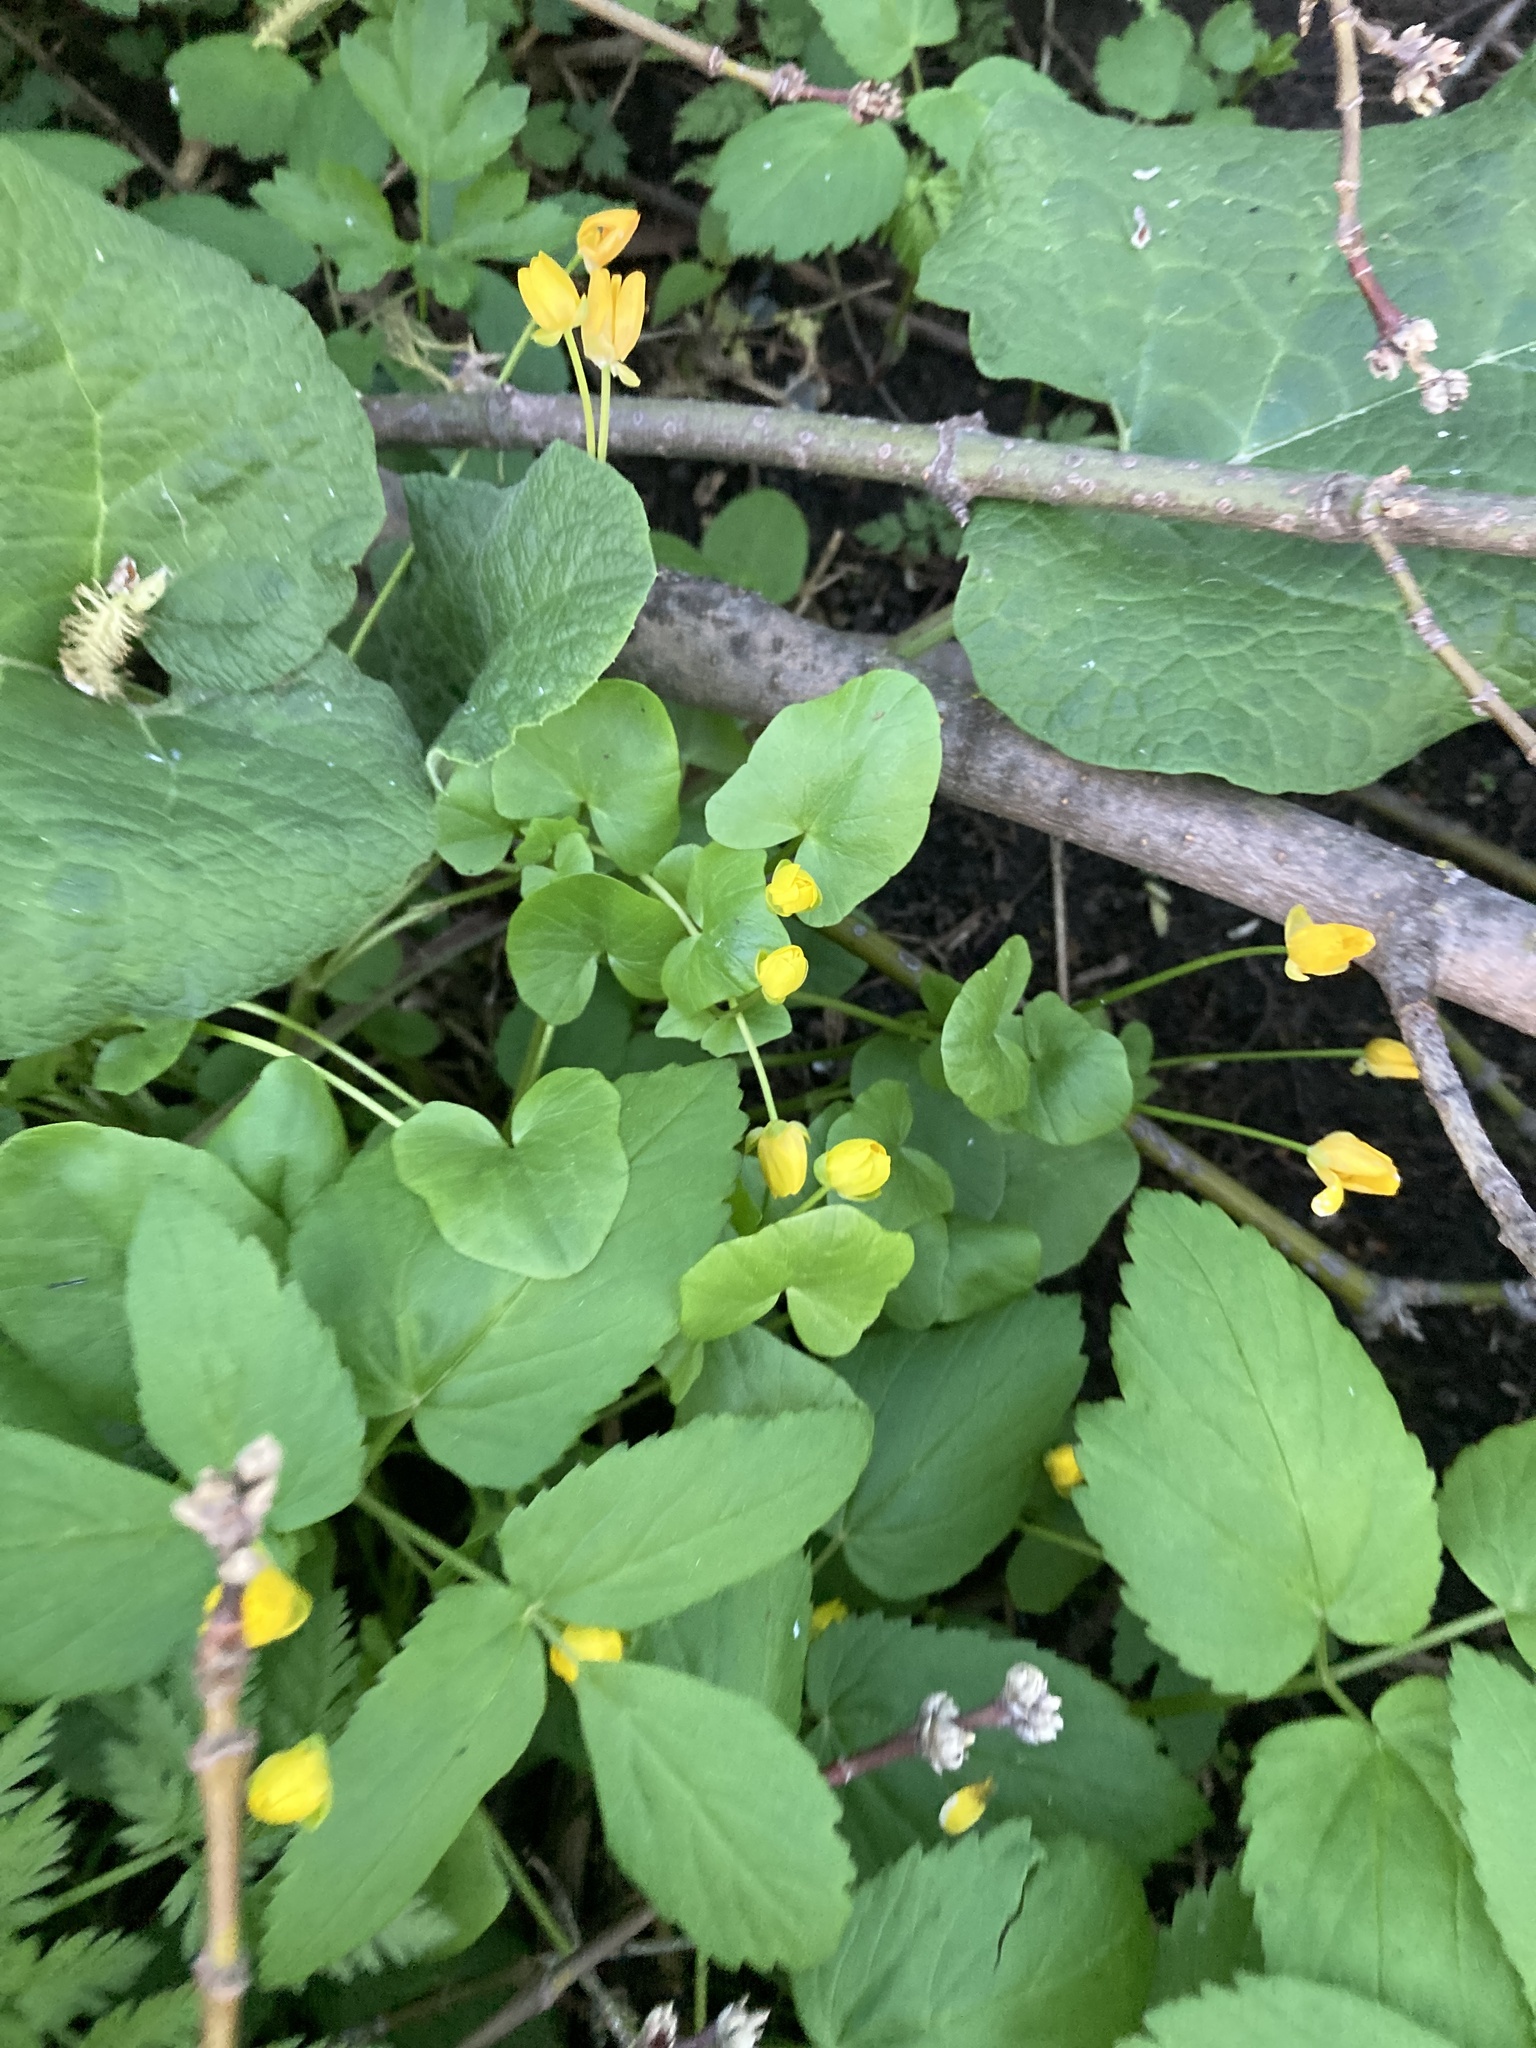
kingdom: Plantae
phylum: Tracheophyta
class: Magnoliopsida
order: Ranunculales
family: Ranunculaceae
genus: Ficaria
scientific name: Ficaria verna
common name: Lesser celandine
